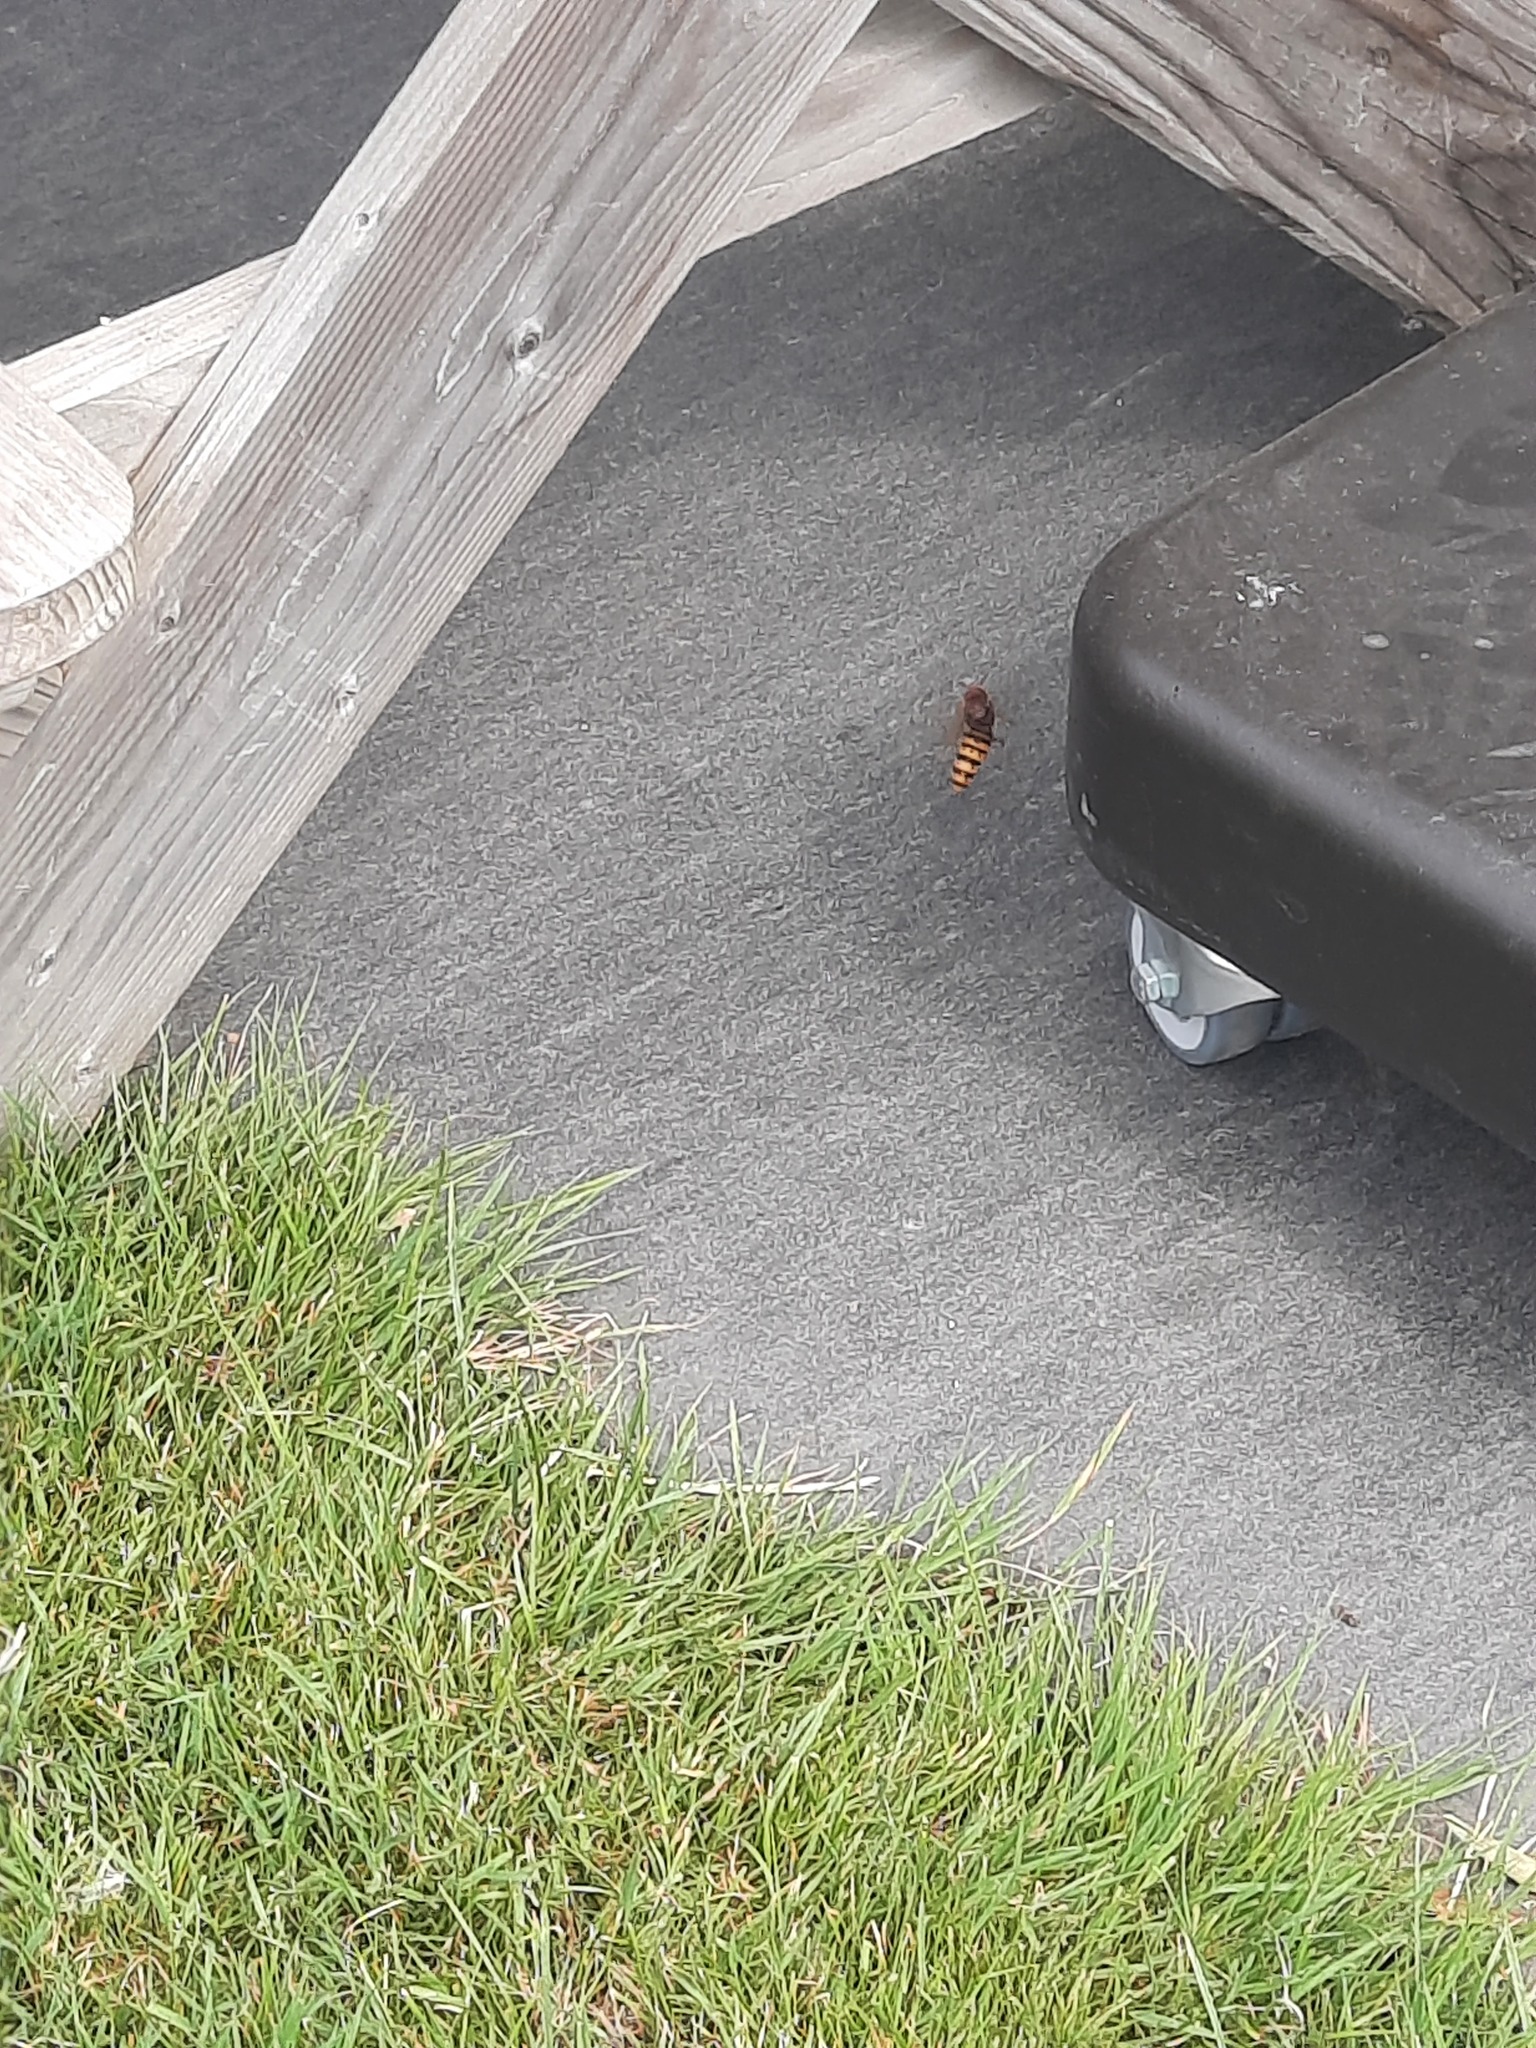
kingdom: Animalia
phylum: Arthropoda
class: Insecta
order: Hymenoptera
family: Vespidae
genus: Vespa
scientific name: Vespa crabro
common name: Hornet
